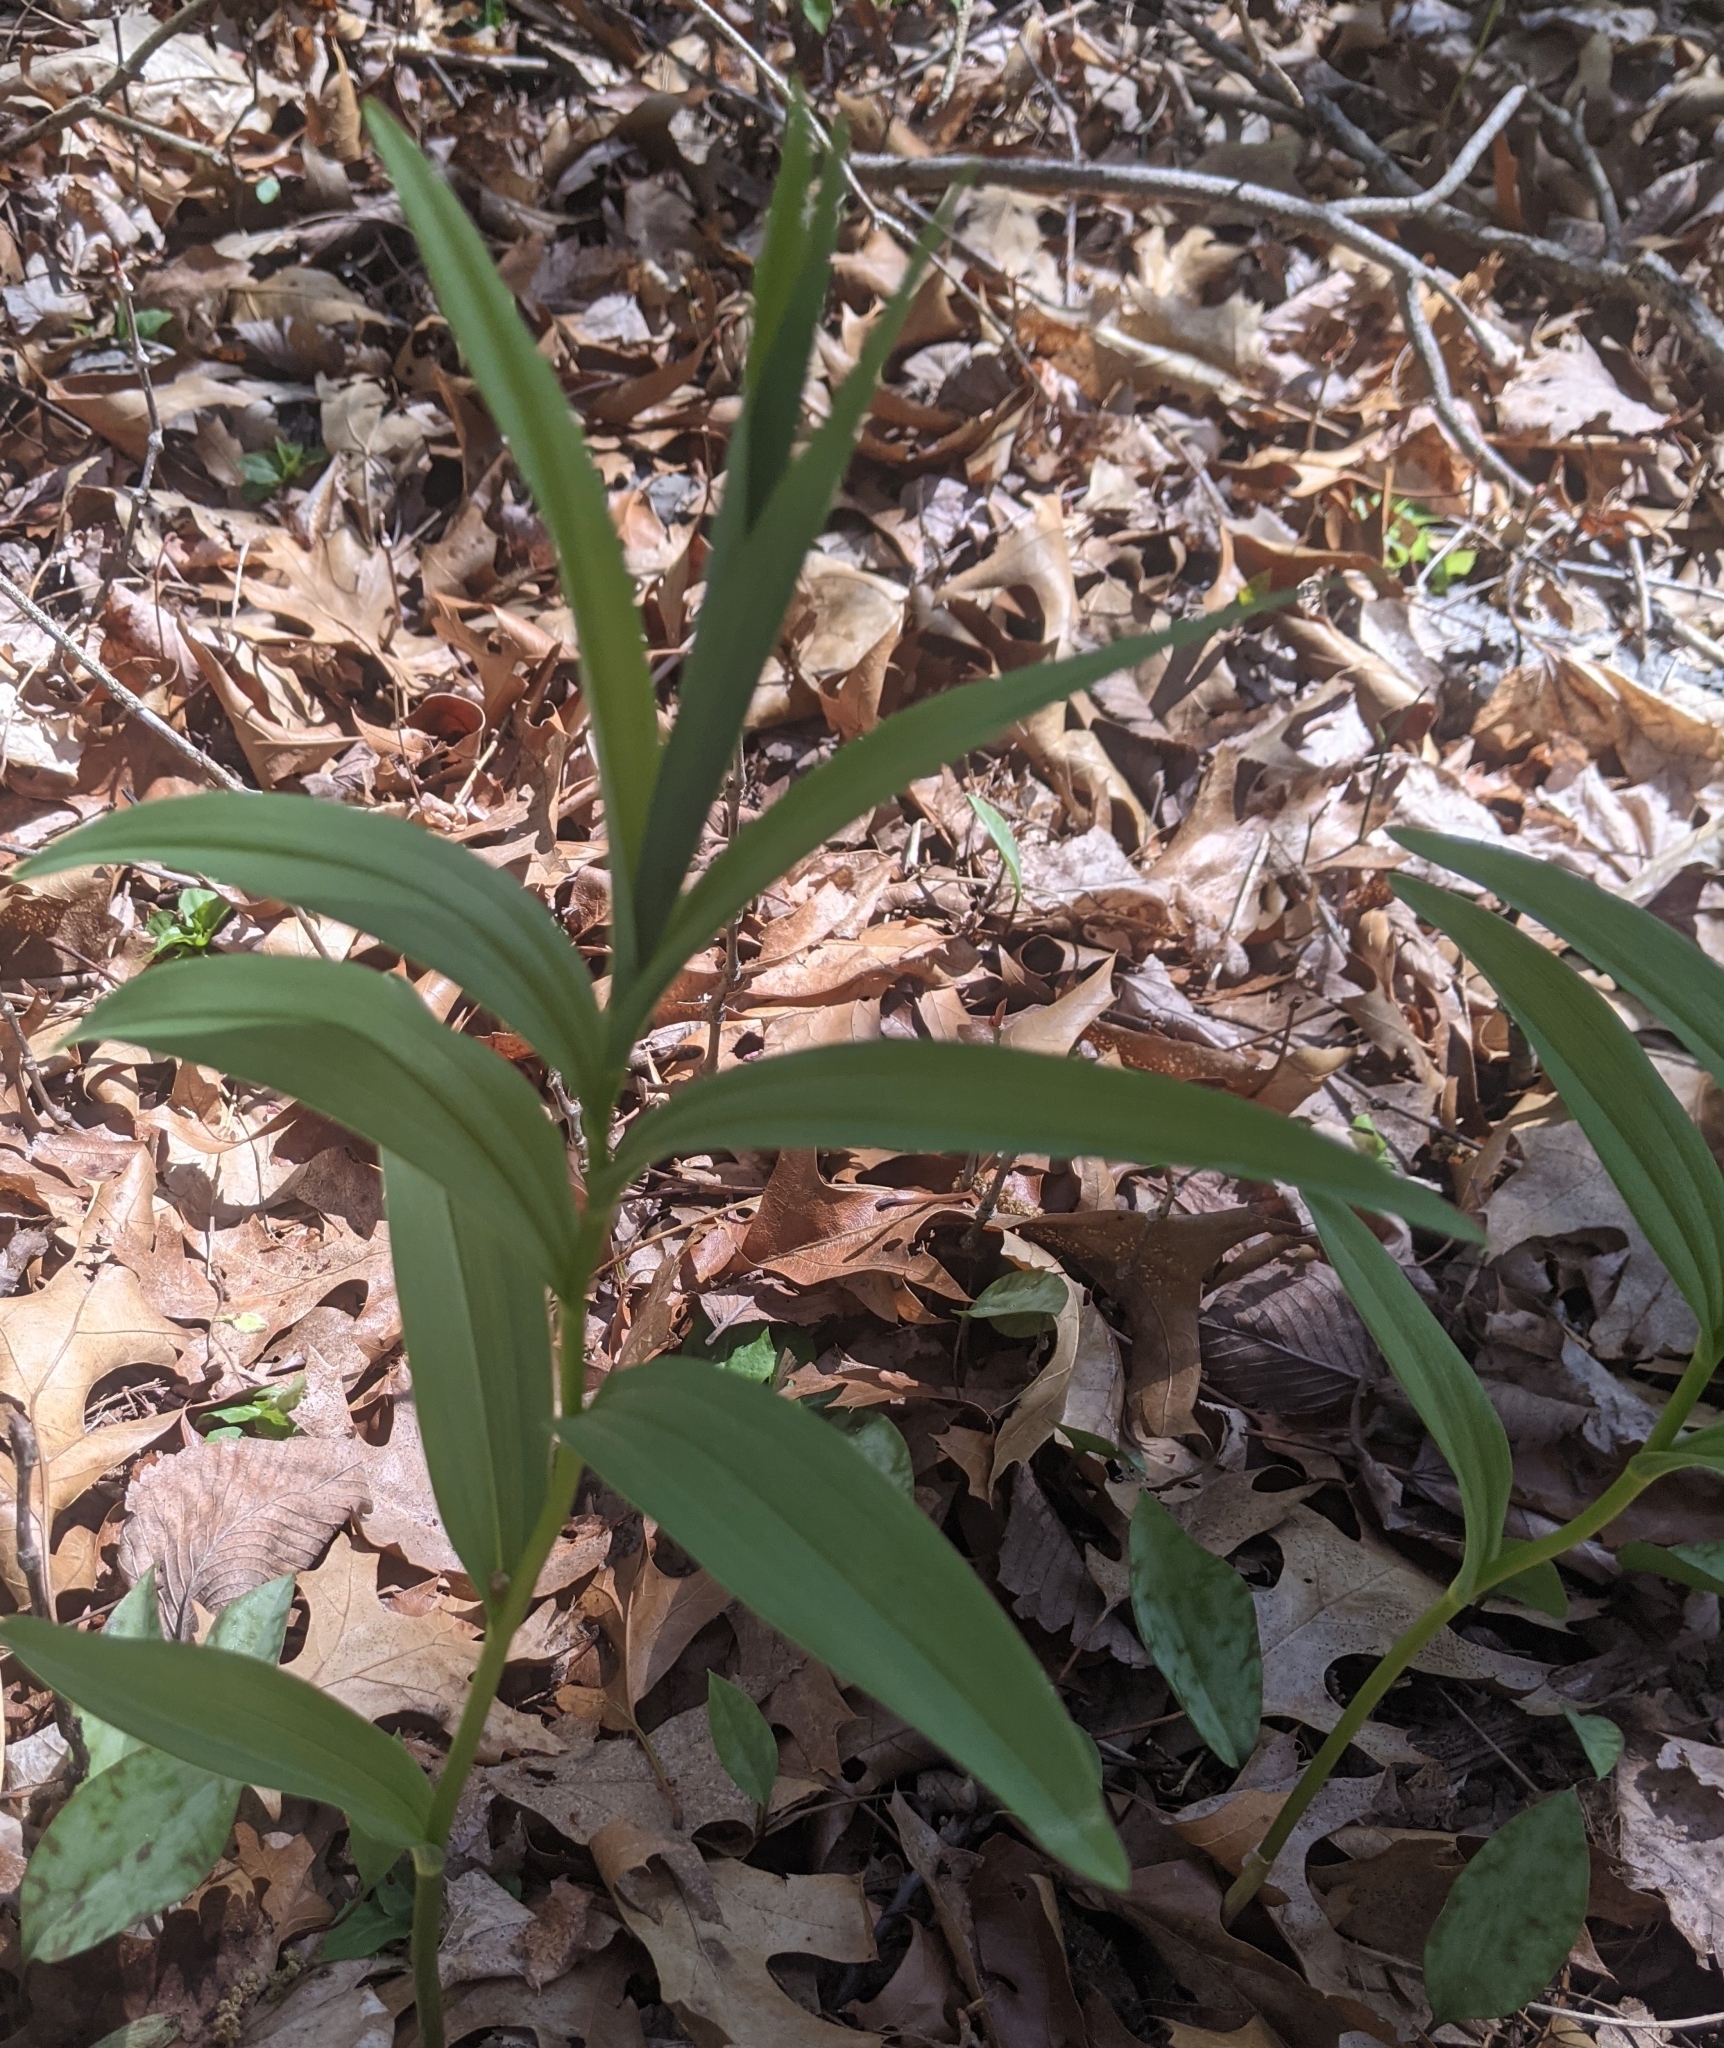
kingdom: Plantae
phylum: Tracheophyta
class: Liliopsida
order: Asparagales
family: Asparagaceae
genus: Maianthemum
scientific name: Maianthemum stellatum
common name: Little false solomon's seal
